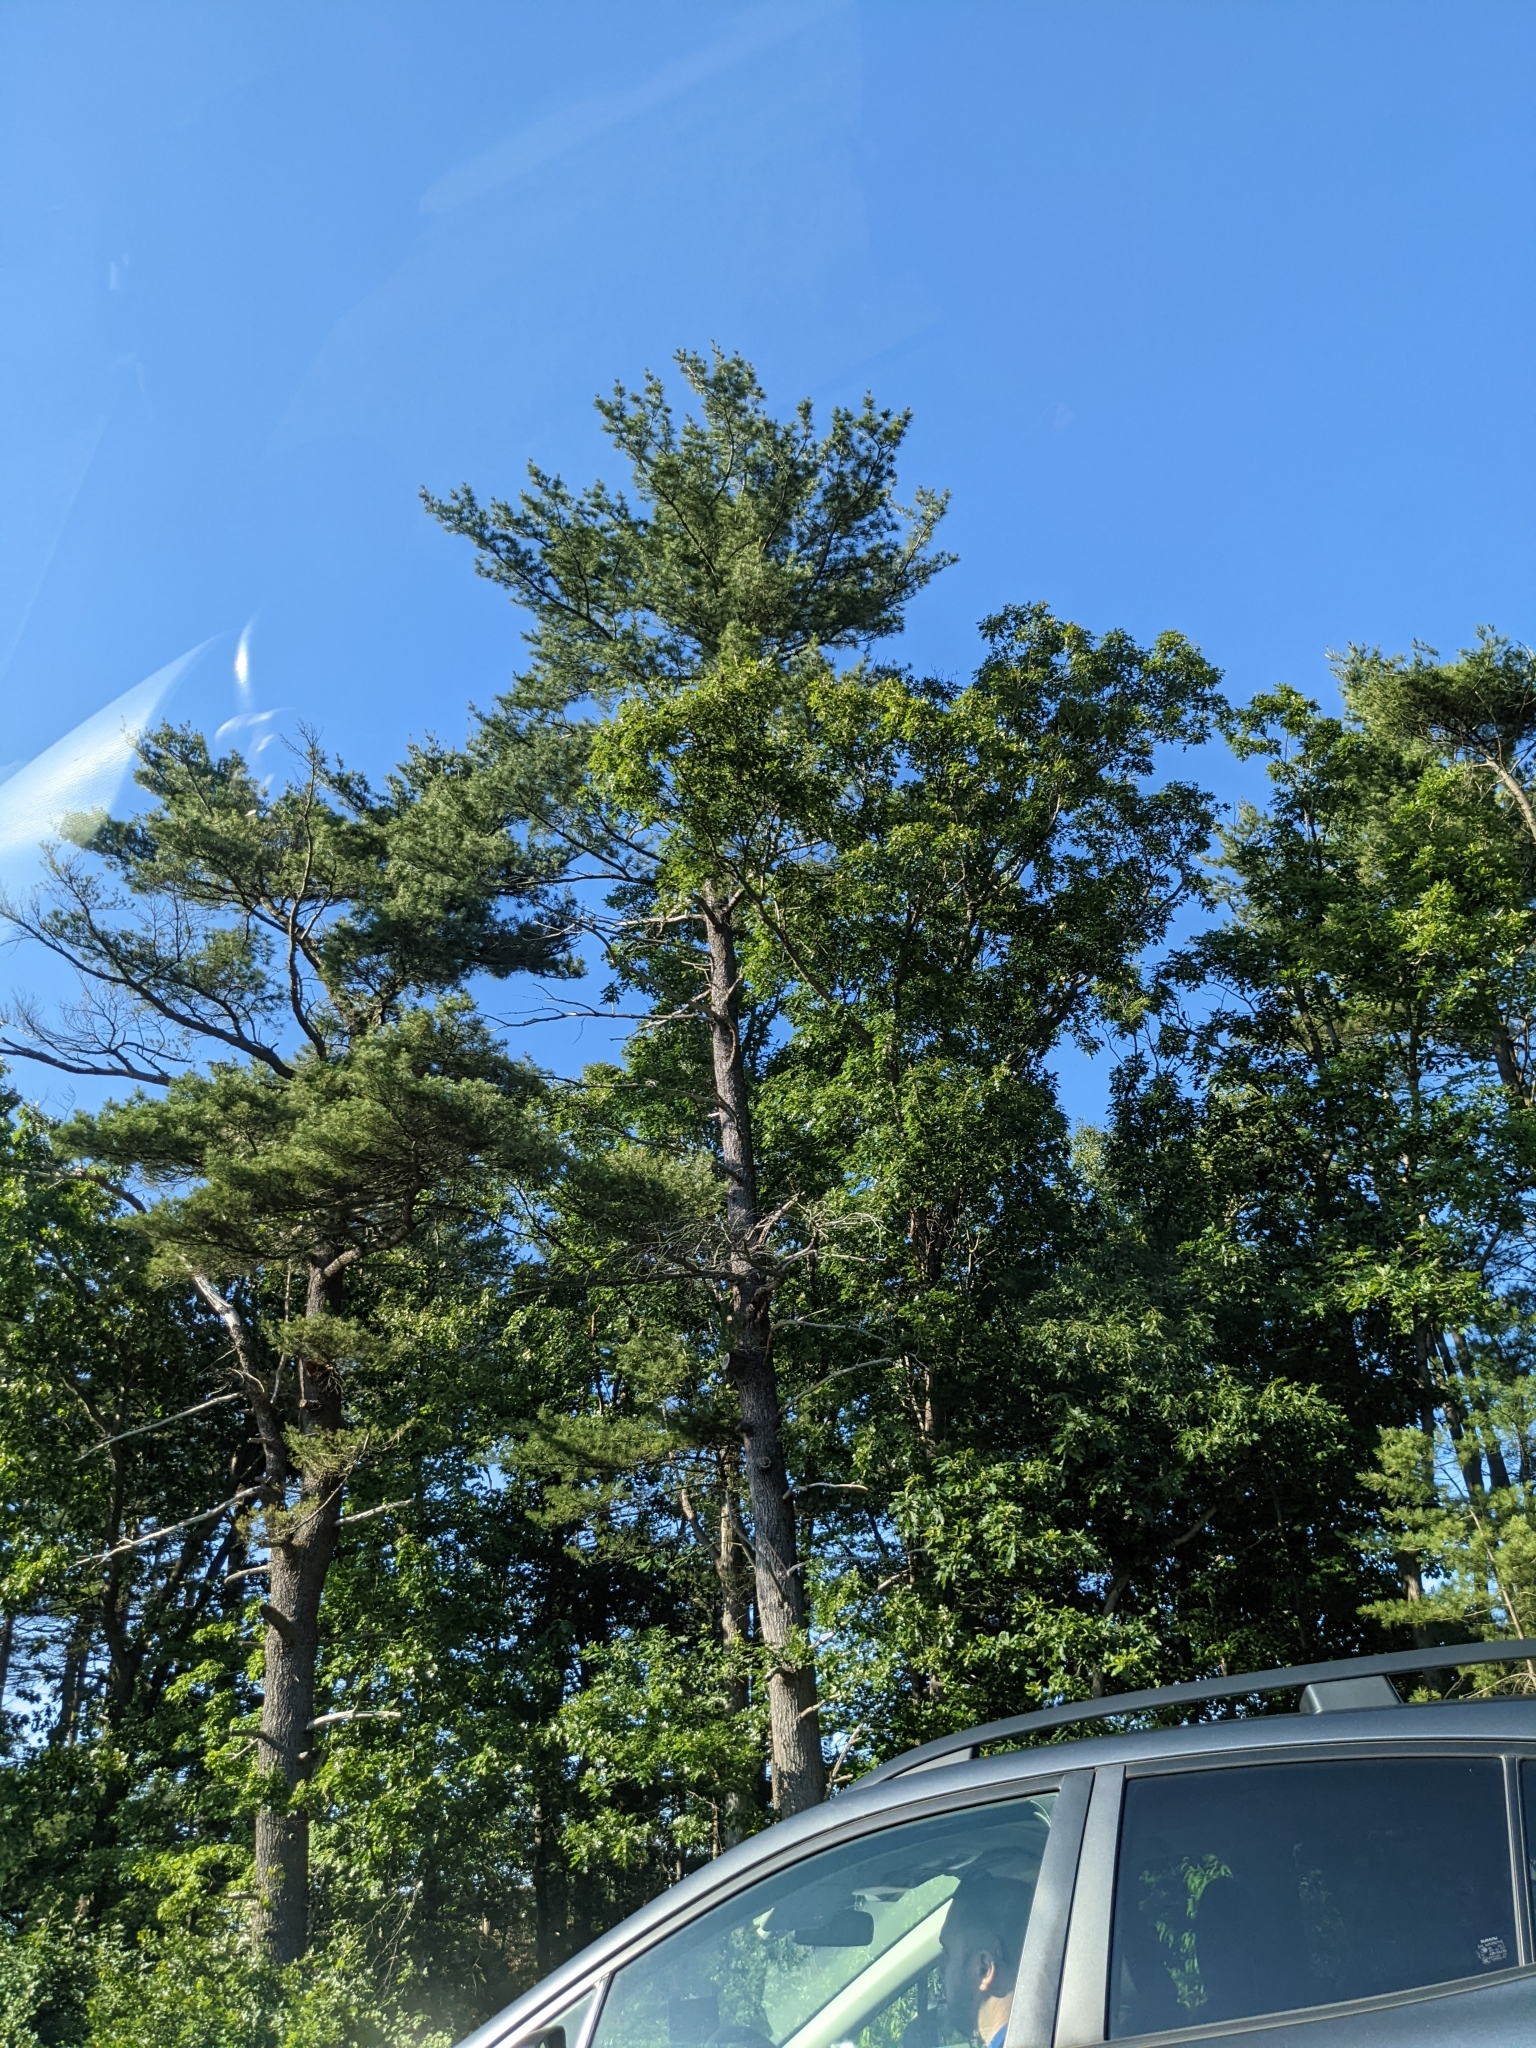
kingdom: Plantae
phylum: Tracheophyta
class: Pinopsida
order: Pinales
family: Pinaceae
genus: Pinus
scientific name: Pinus strobus
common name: Weymouth pine
